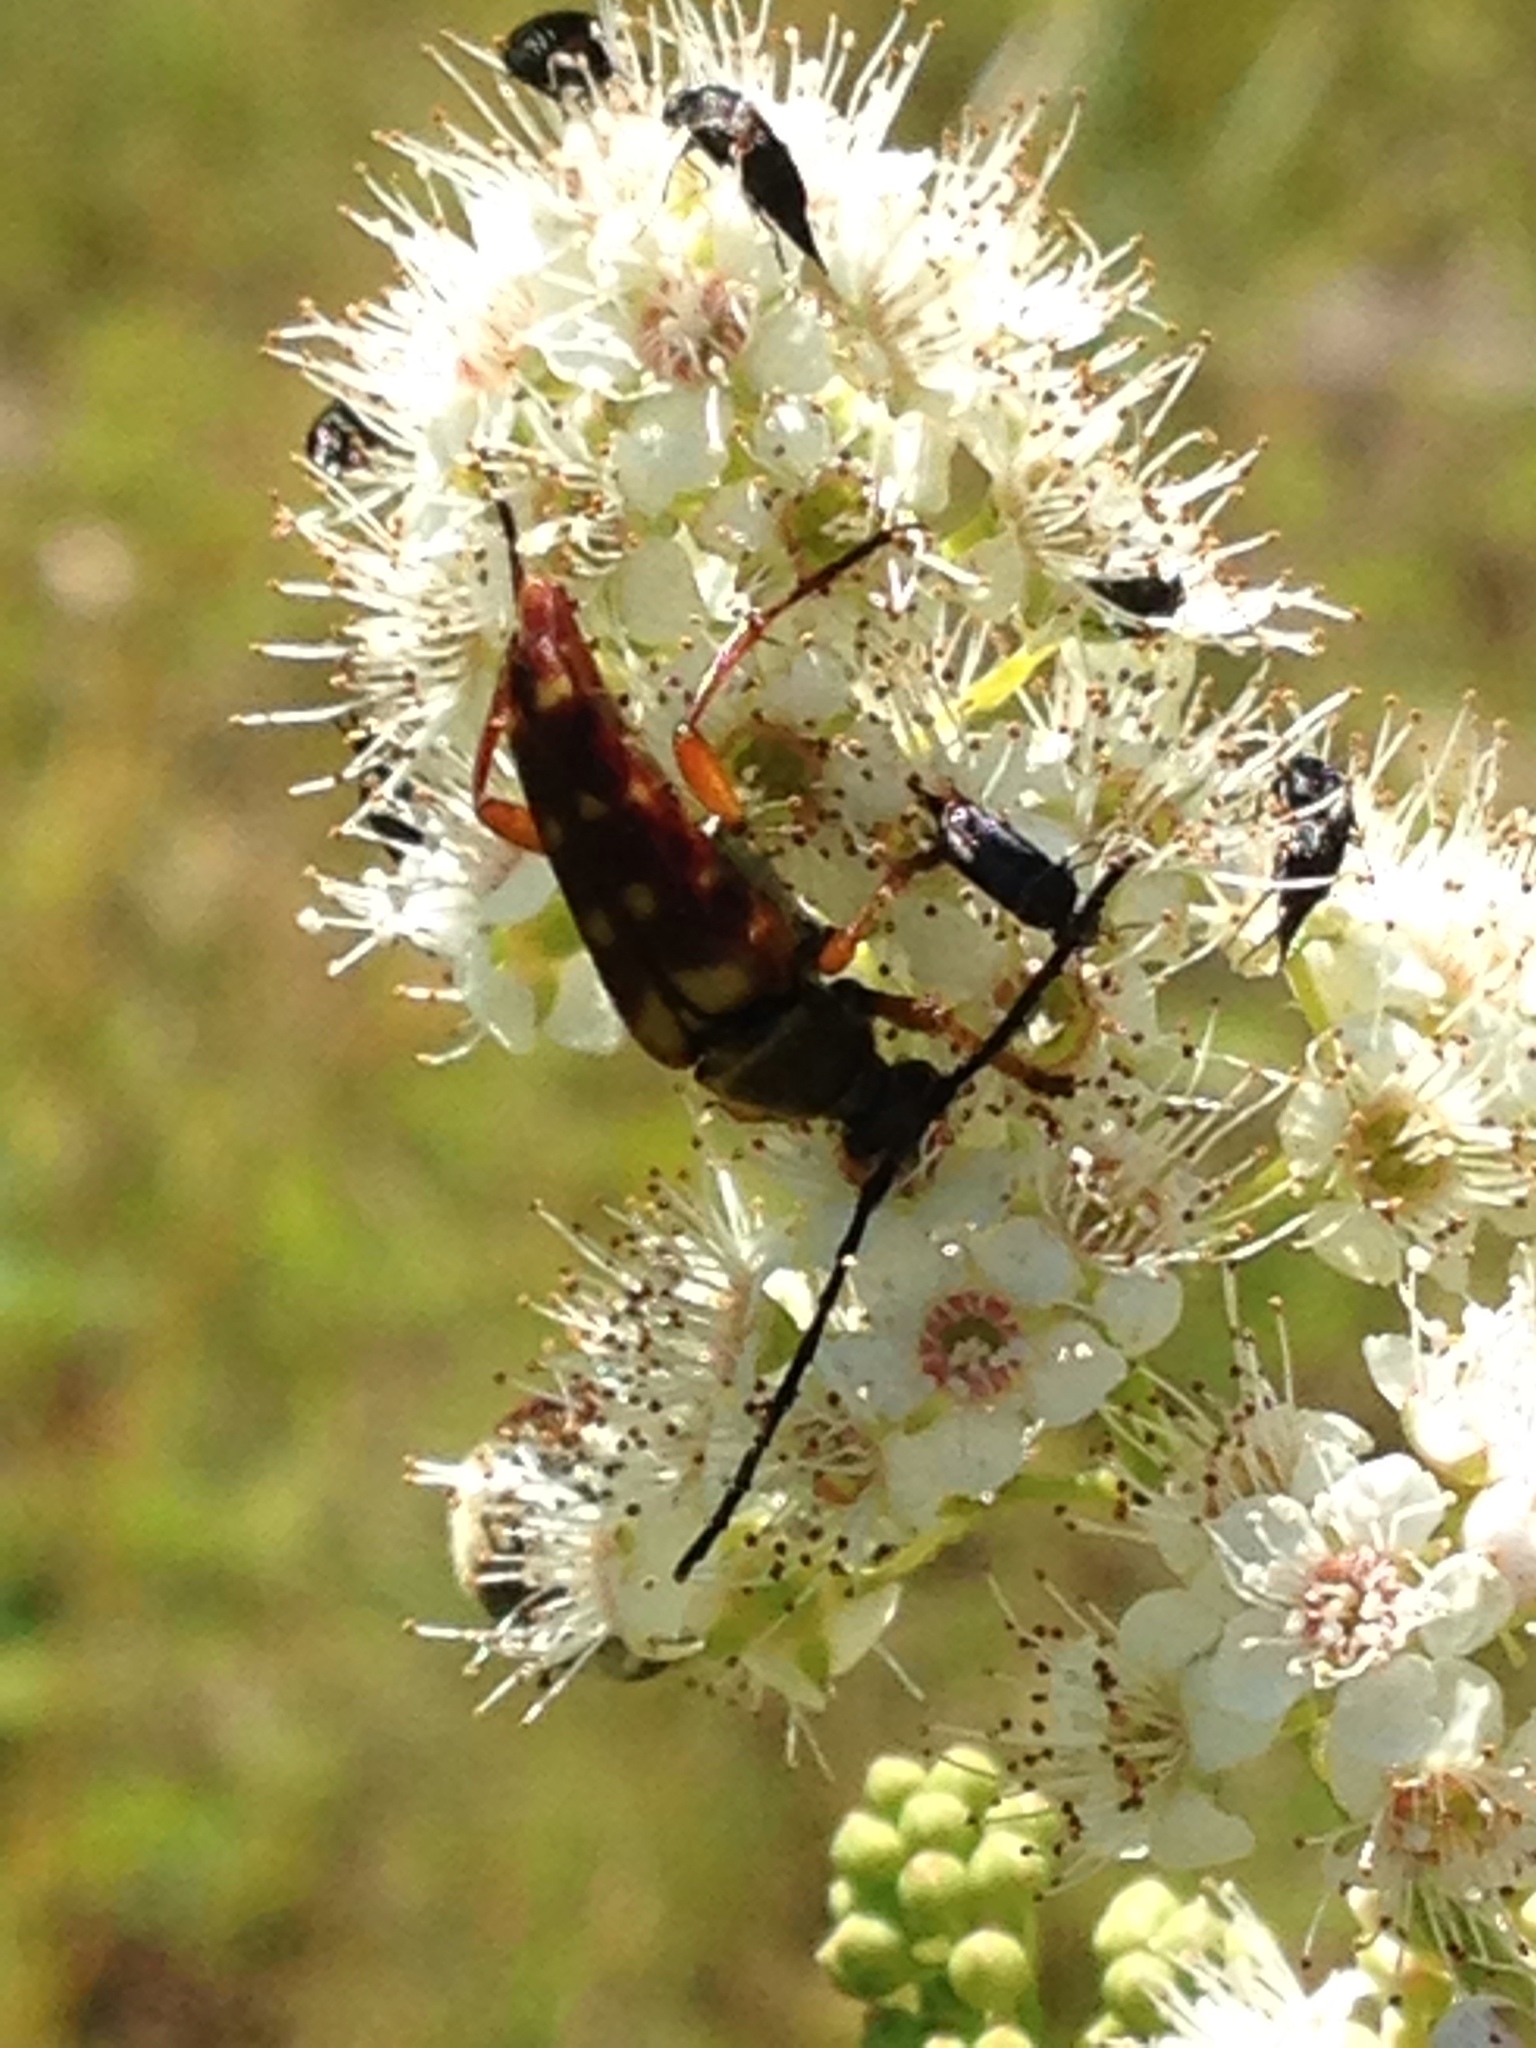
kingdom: Animalia
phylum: Arthropoda
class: Insecta
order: Coleoptera
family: Cerambycidae
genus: Typocerus
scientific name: Typocerus velutinus
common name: Banded longhorn beetle
